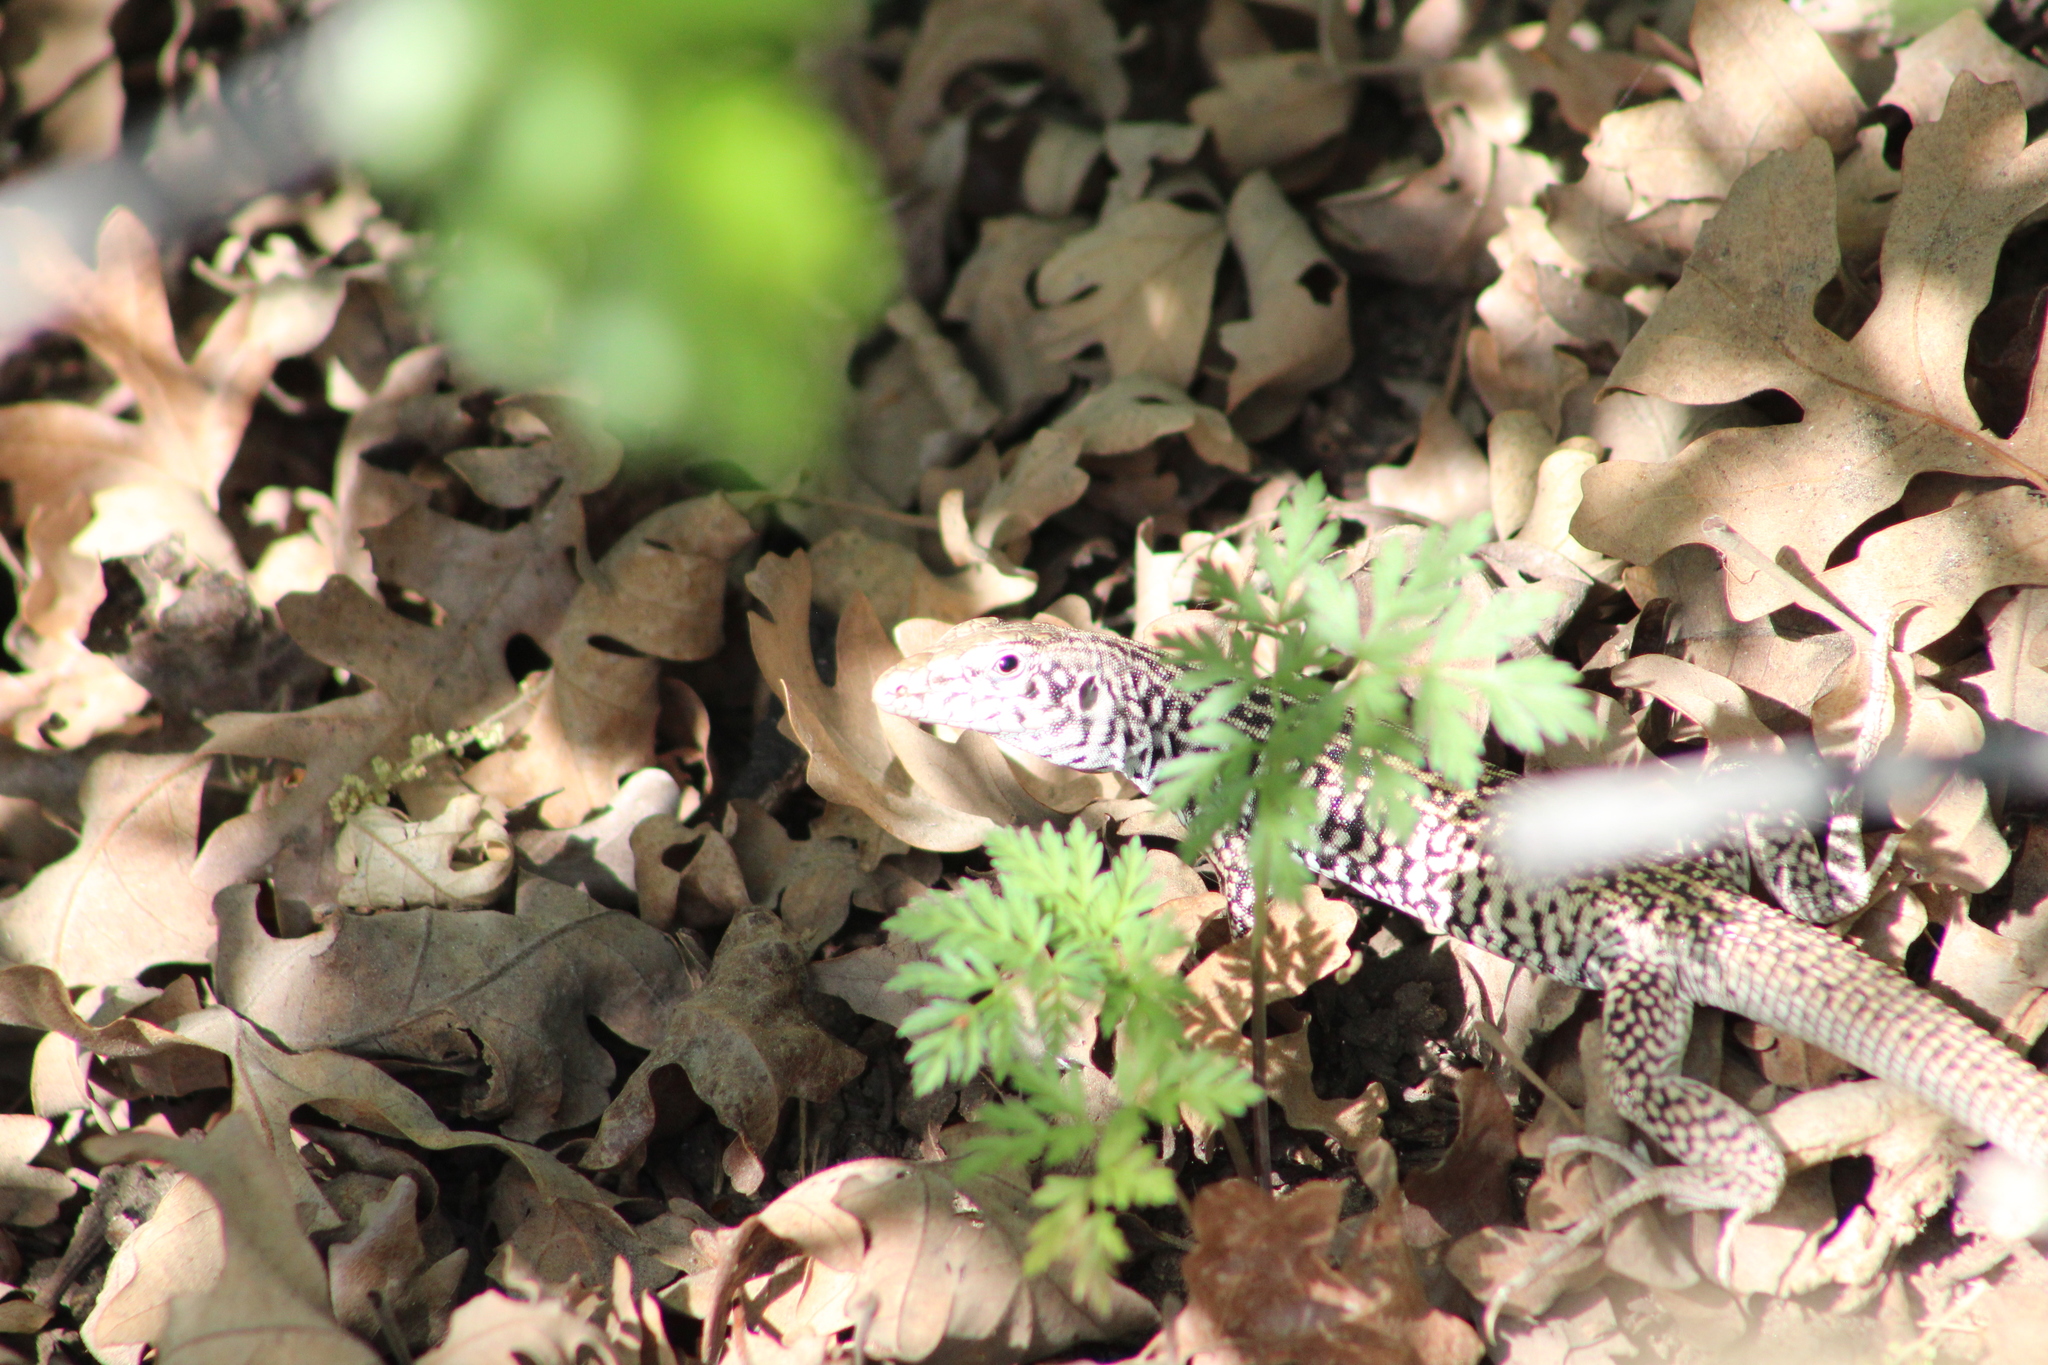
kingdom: Animalia
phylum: Chordata
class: Squamata
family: Teiidae
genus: Aspidoscelis
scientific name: Aspidoscelis tigris
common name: Tiger whiptail
